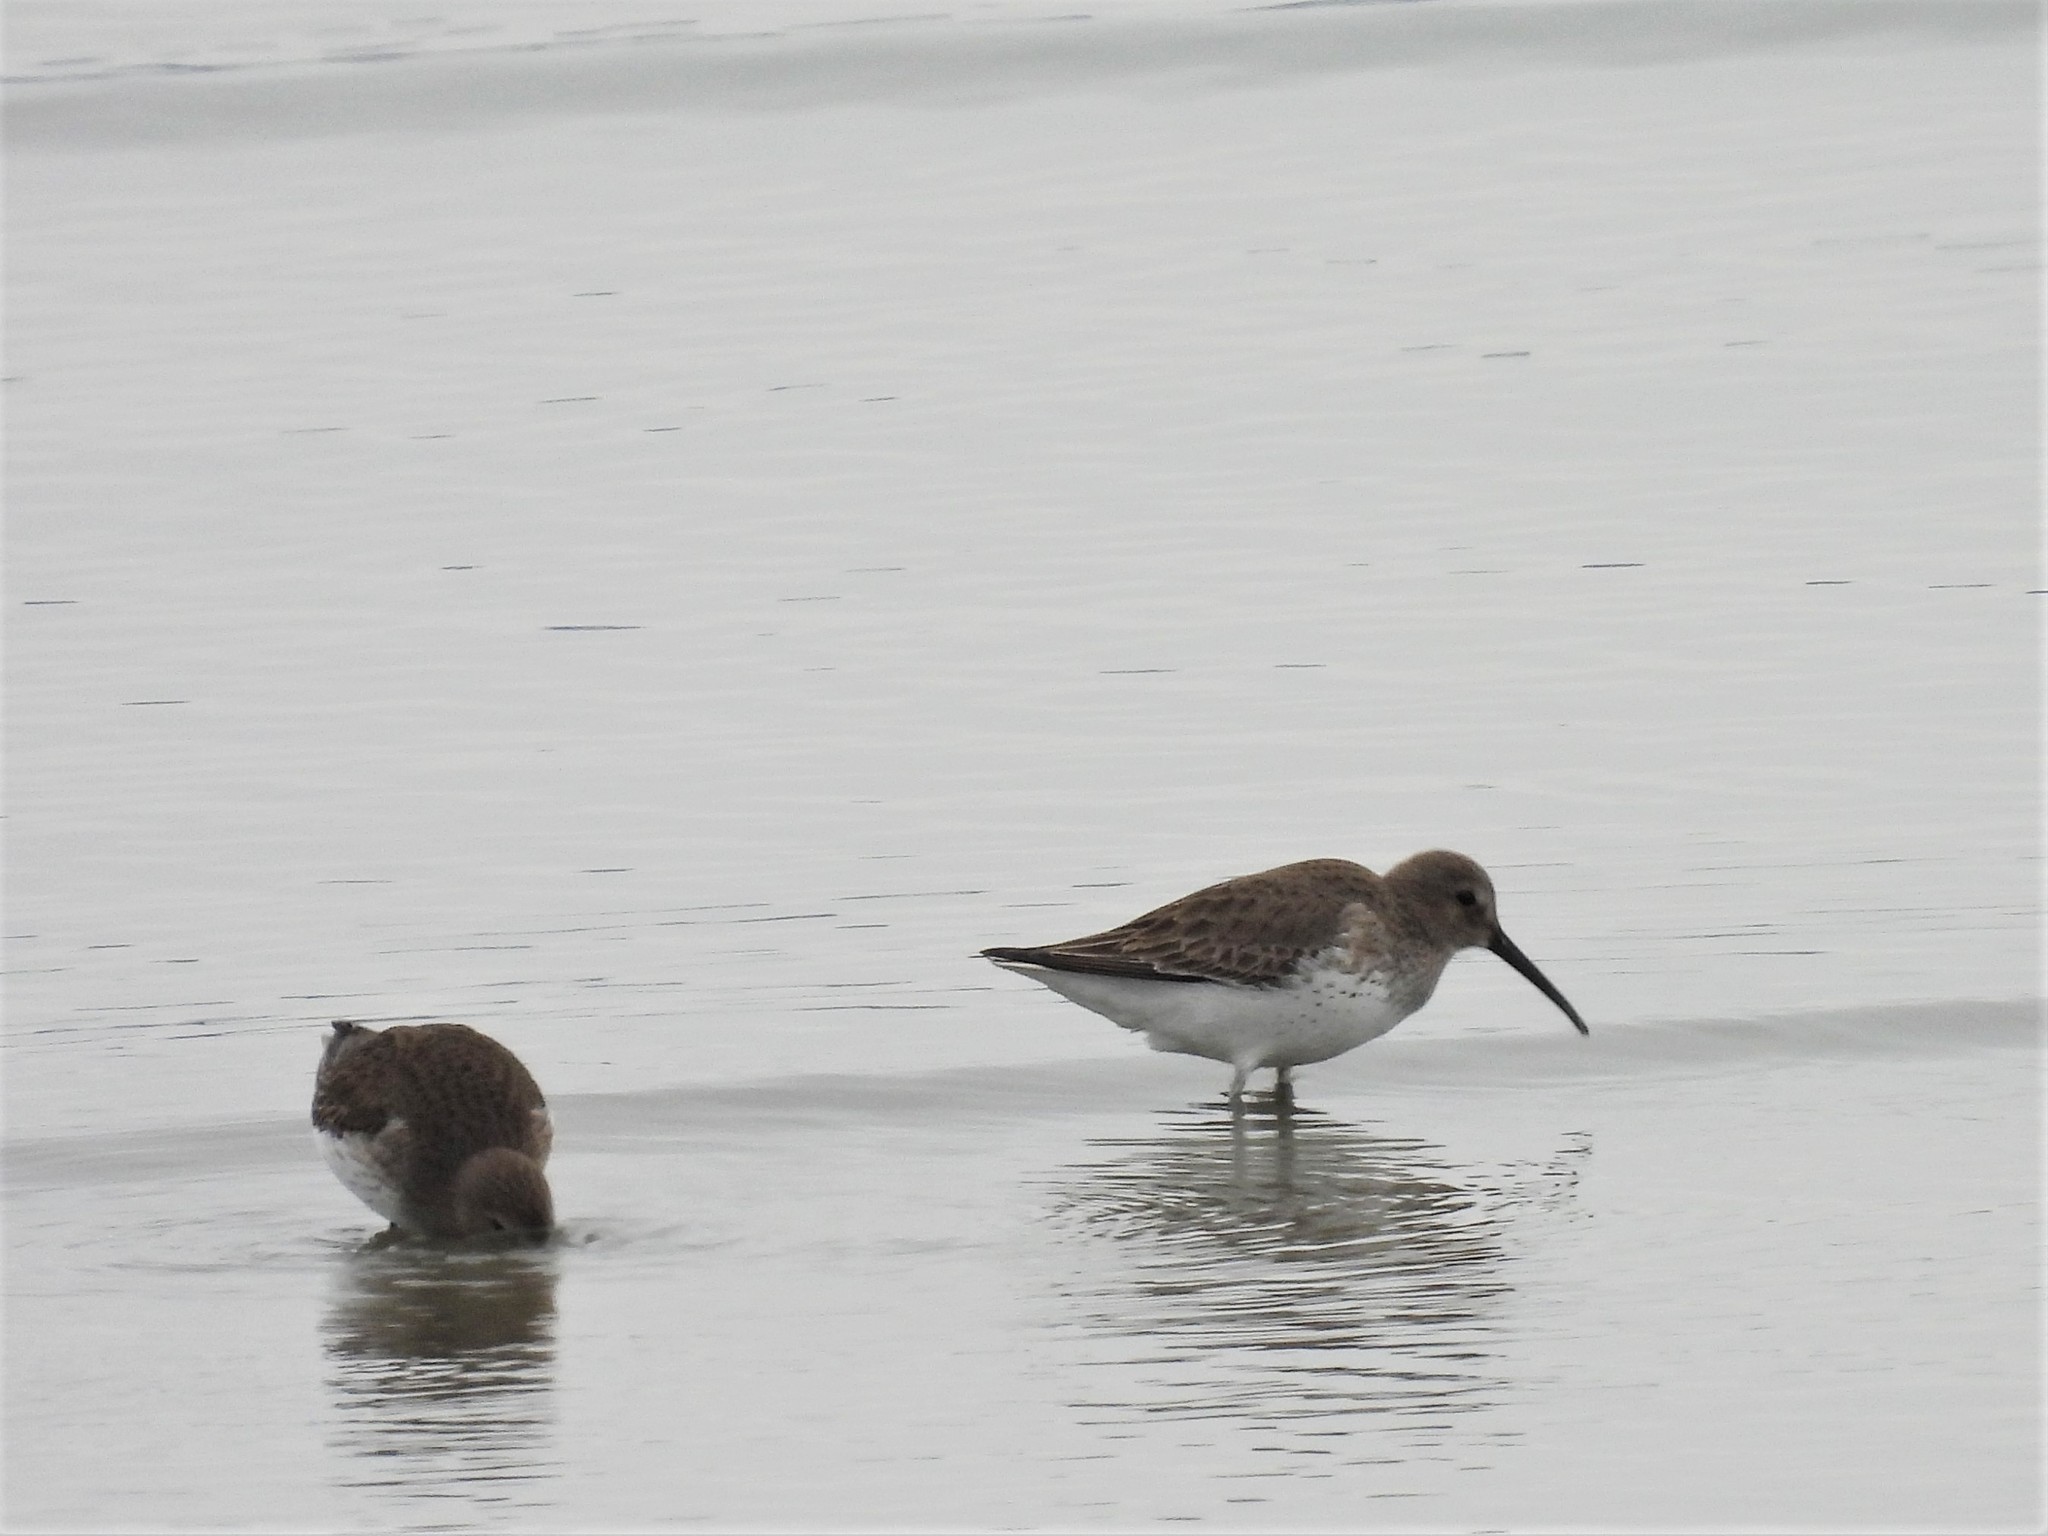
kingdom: Animalia
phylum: Chordata
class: Aves
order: Charadriiformes
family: Scolopacidae
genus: Calidris
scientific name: Calidris alpina
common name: Dunlin
